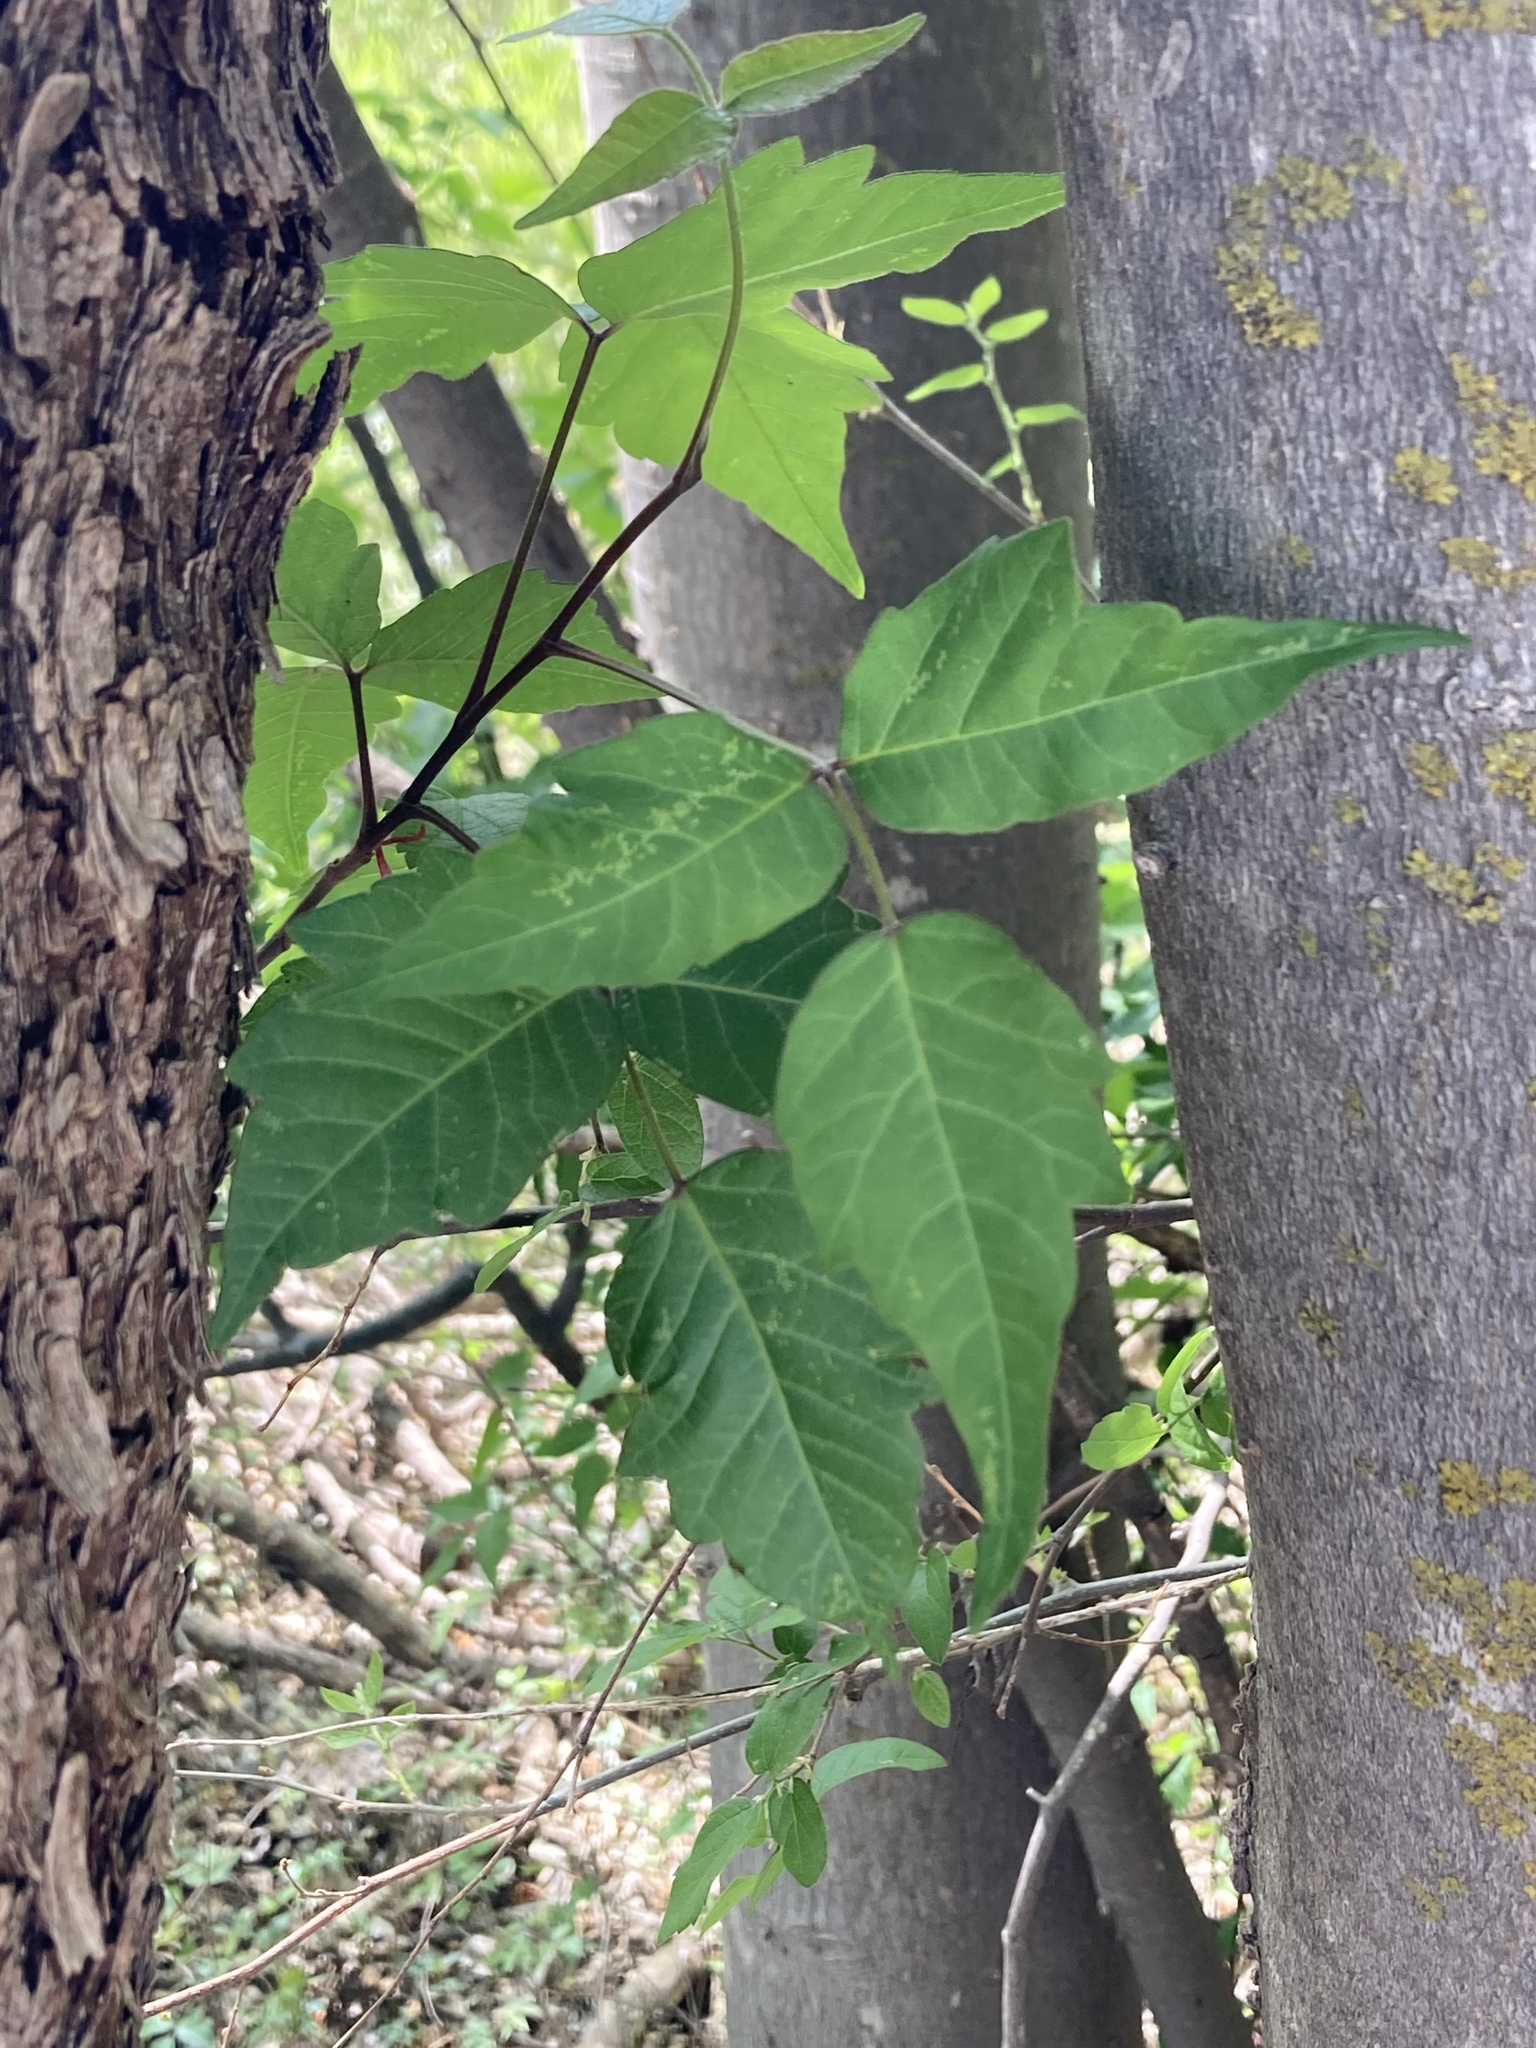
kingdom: Plantae
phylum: Tracheophyta
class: Magnoliopsida
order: Sapindales
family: Anacardiaceae
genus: Toxicodendron
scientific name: Toxicodendron radicans
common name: Poison ivy
